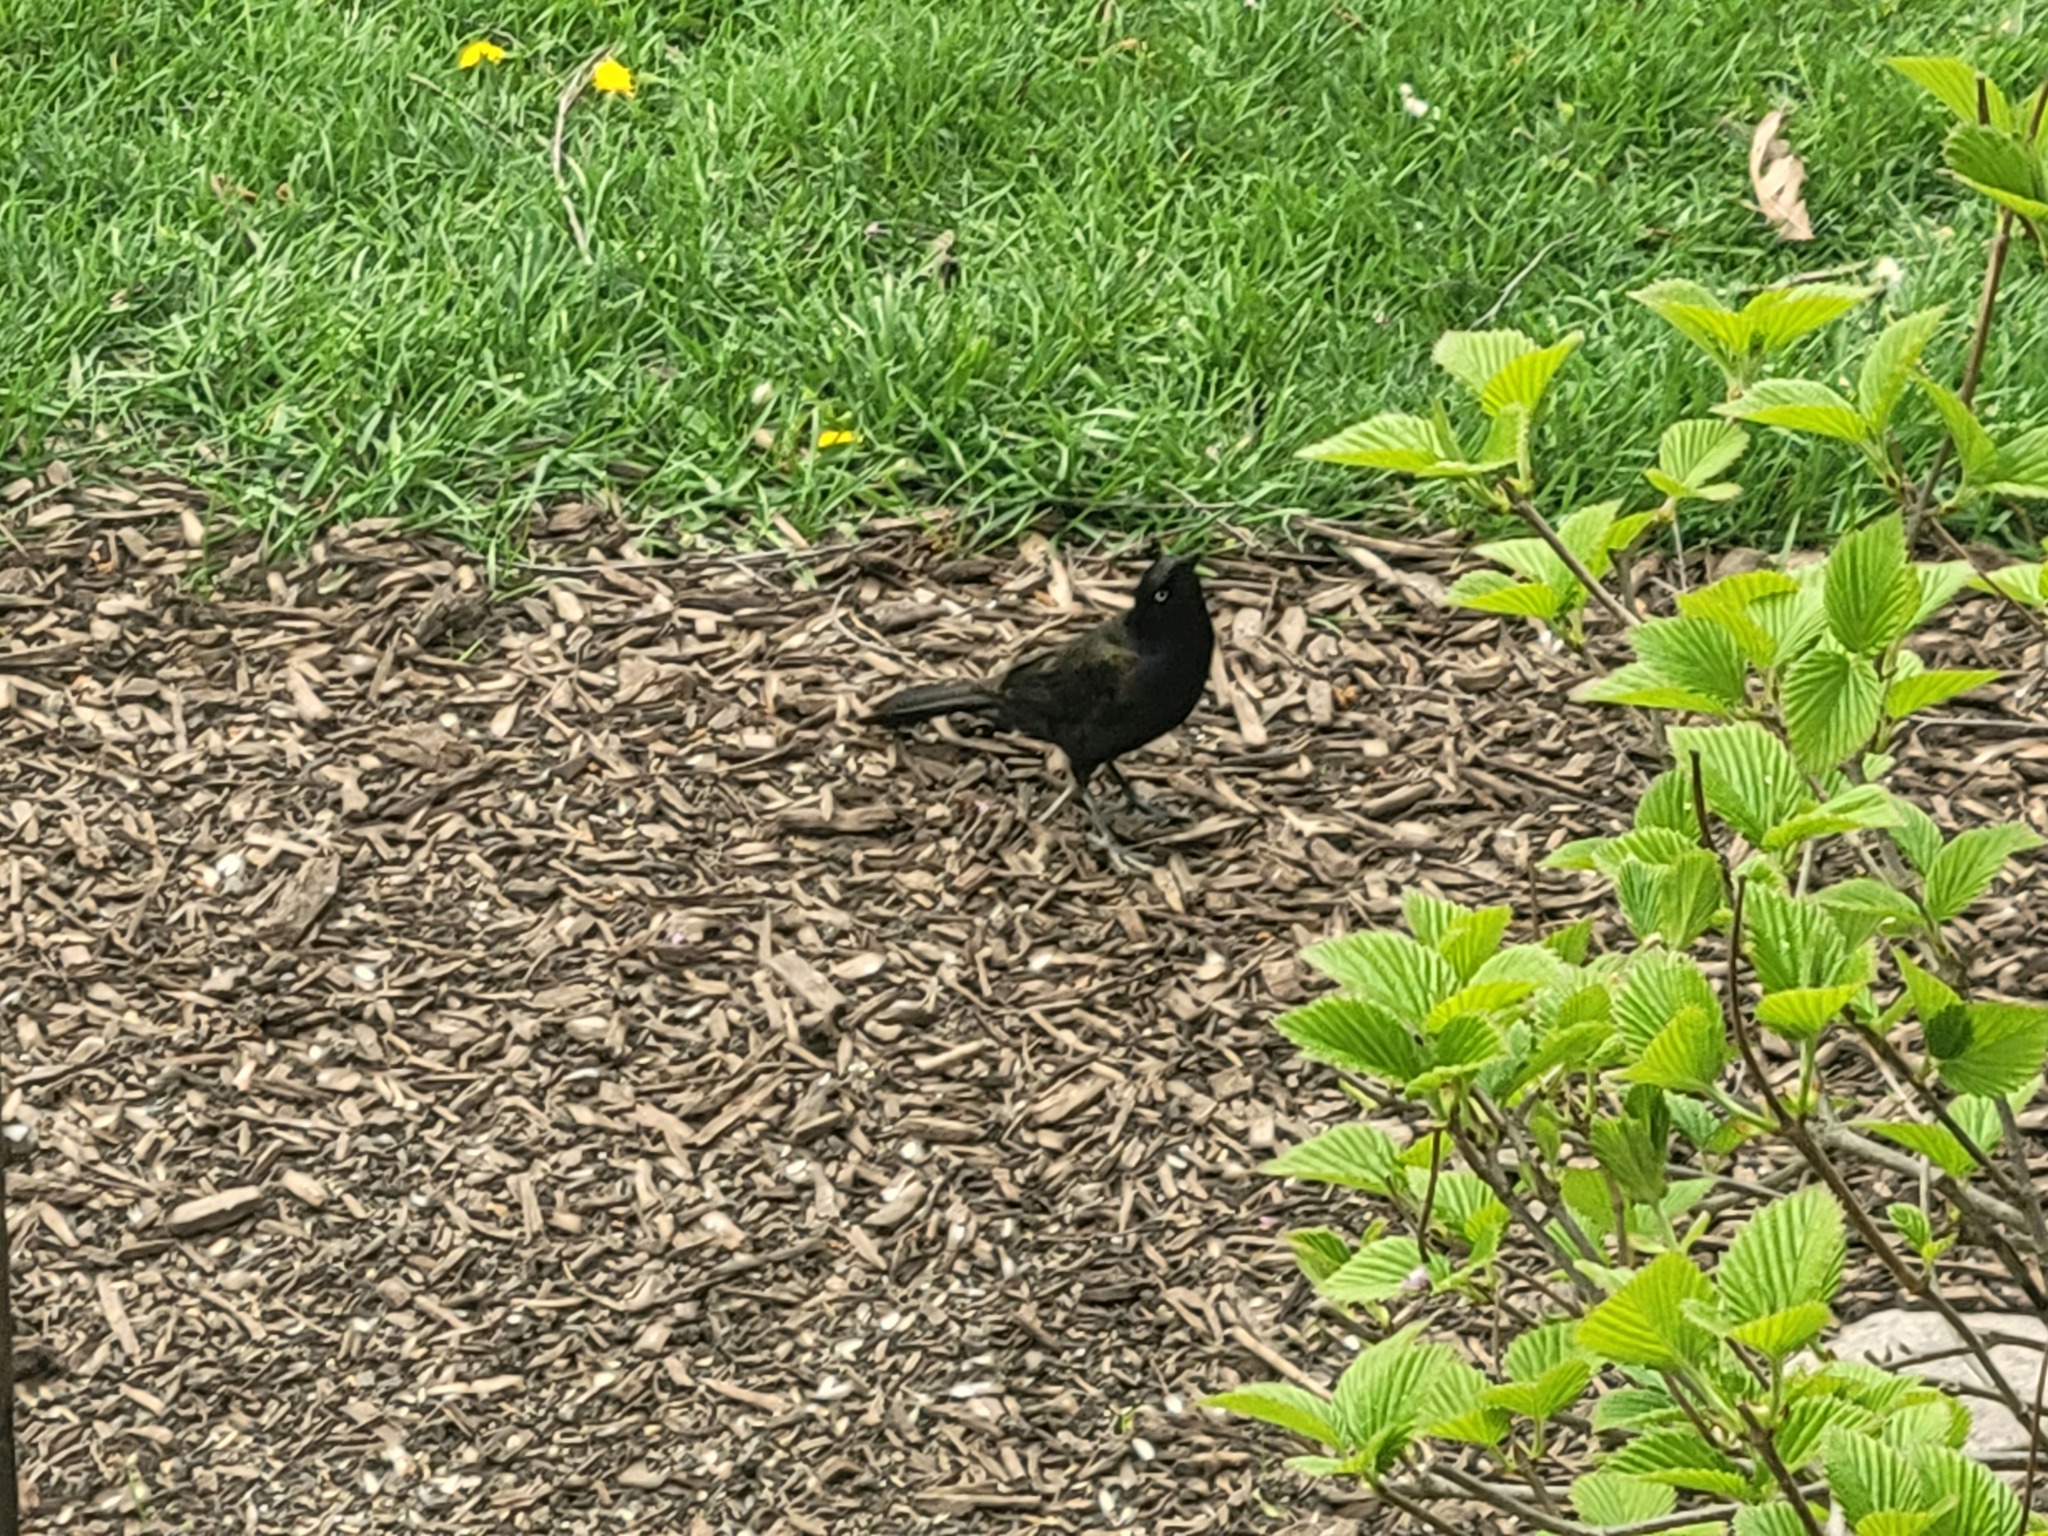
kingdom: Animalia
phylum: Chordata
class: Aves
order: Passeriformes
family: Icteridae
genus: Quiscalus
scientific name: Quiscalus quiscula
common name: Common grackle
